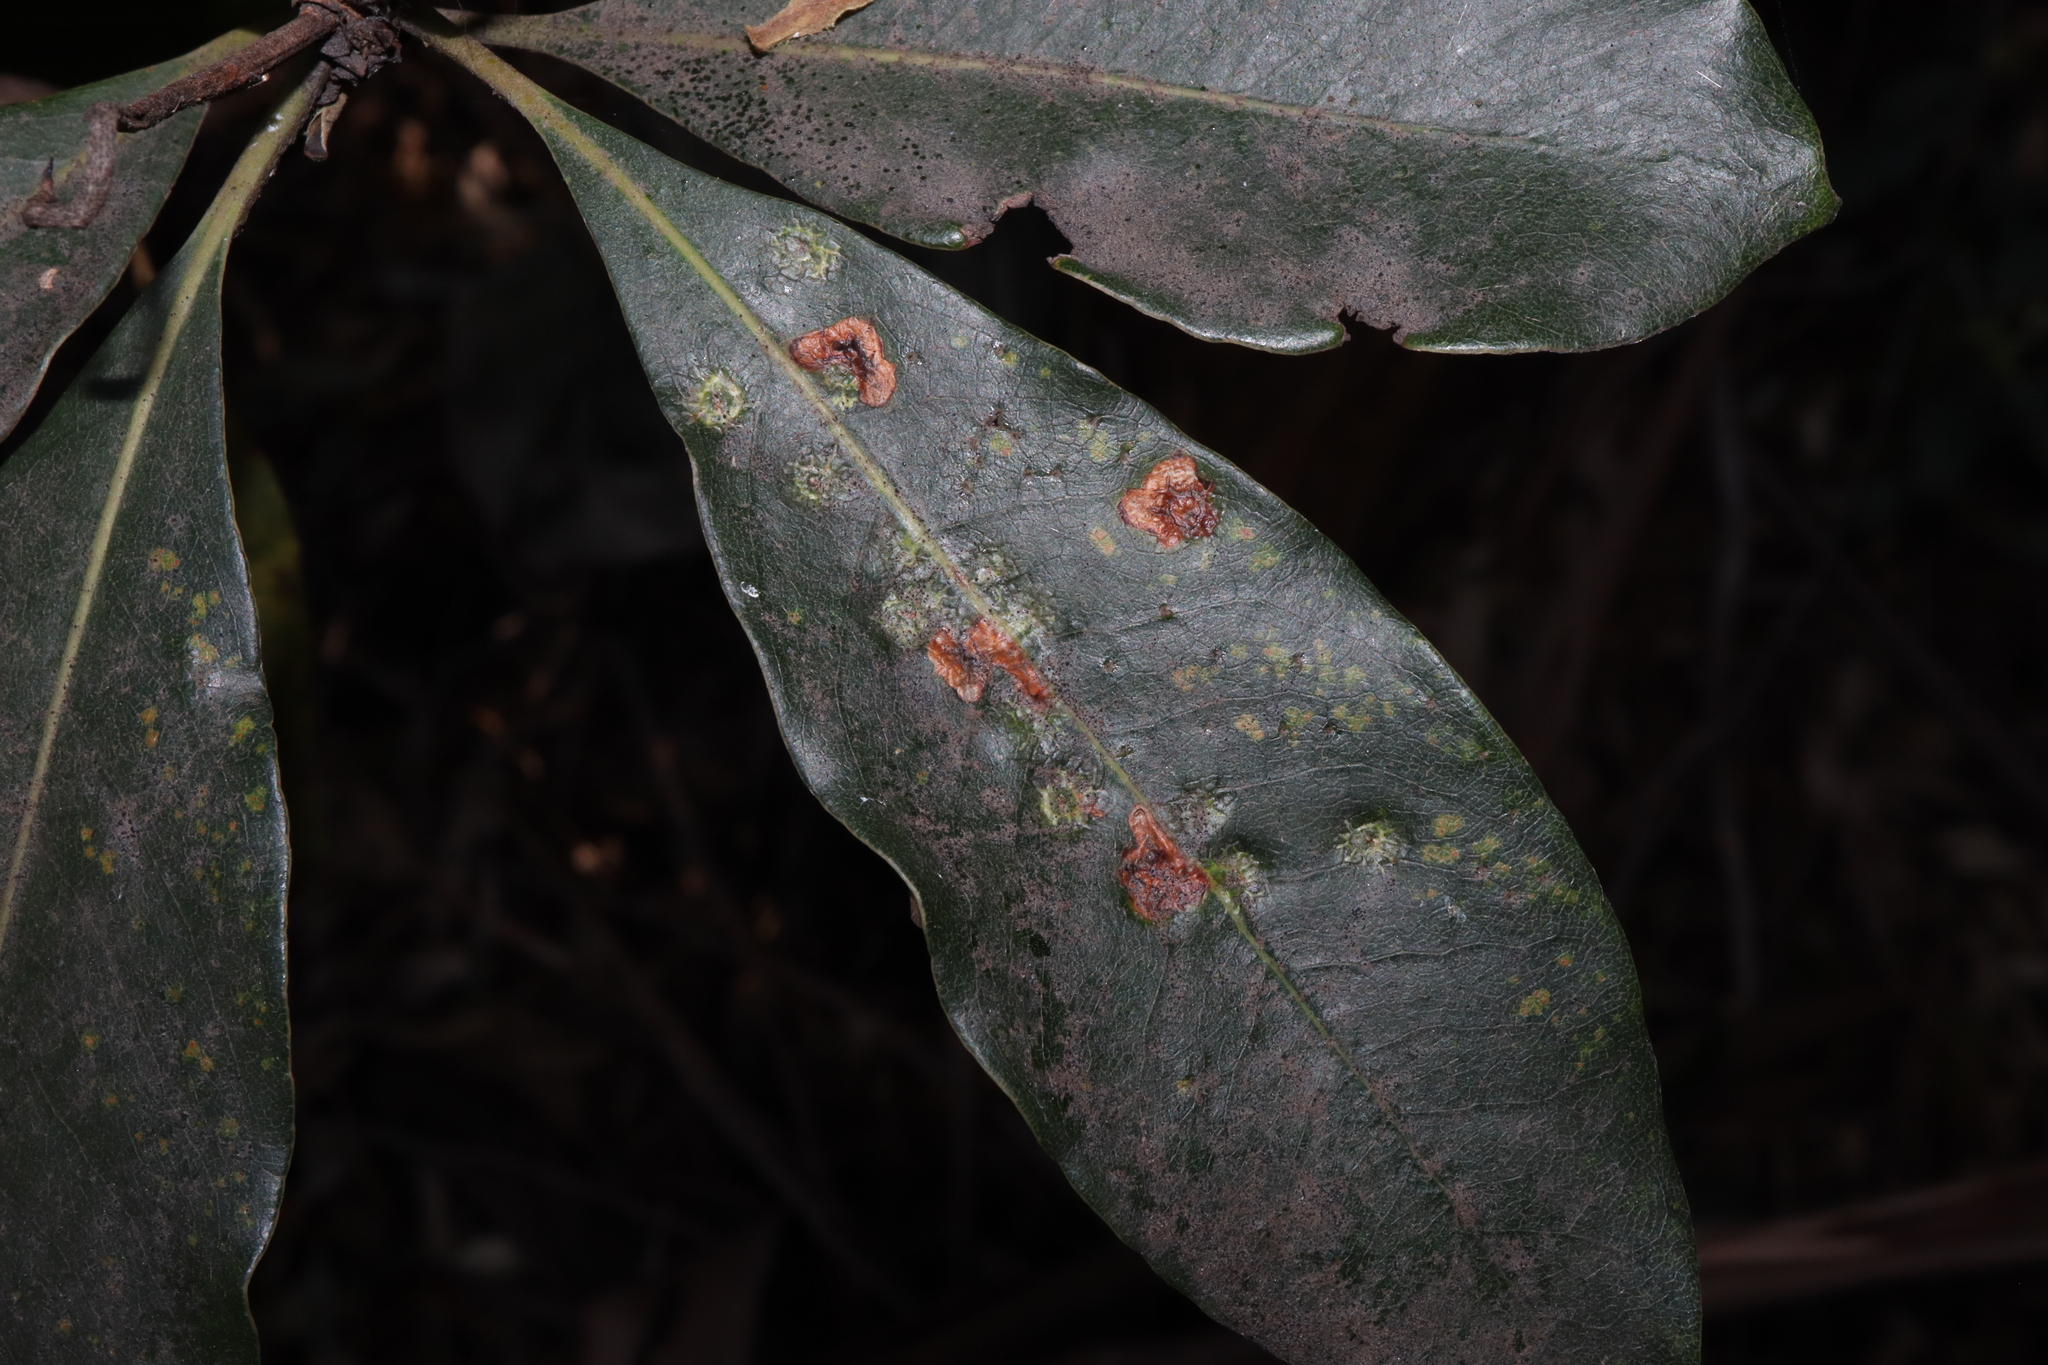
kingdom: Animalia
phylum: Arthropoda
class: Insecta
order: Diptera
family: Agromyzidae
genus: Phytoliriomyza
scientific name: Phytoliriomyza pittosporophylli
